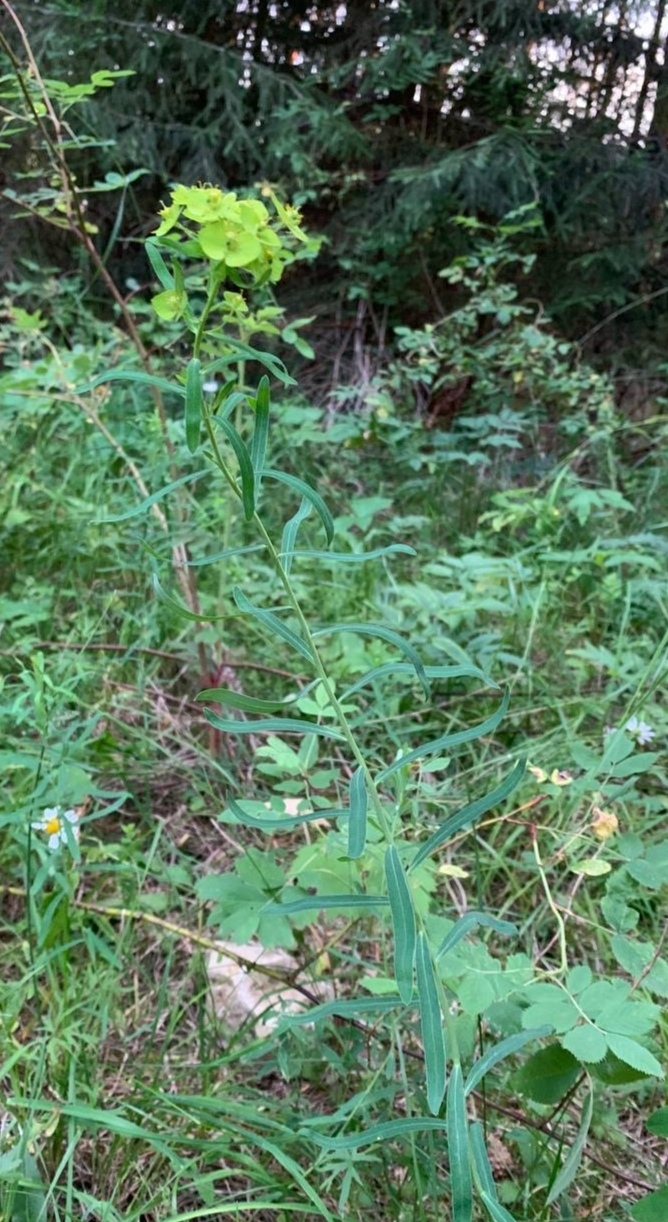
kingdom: Plantae
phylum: Tracheophyta
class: Magnoliopsida
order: Malpighiales
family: Euphorbiaceae
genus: Euphorbia
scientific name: Euphorbia virgata
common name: Leafy spurge
